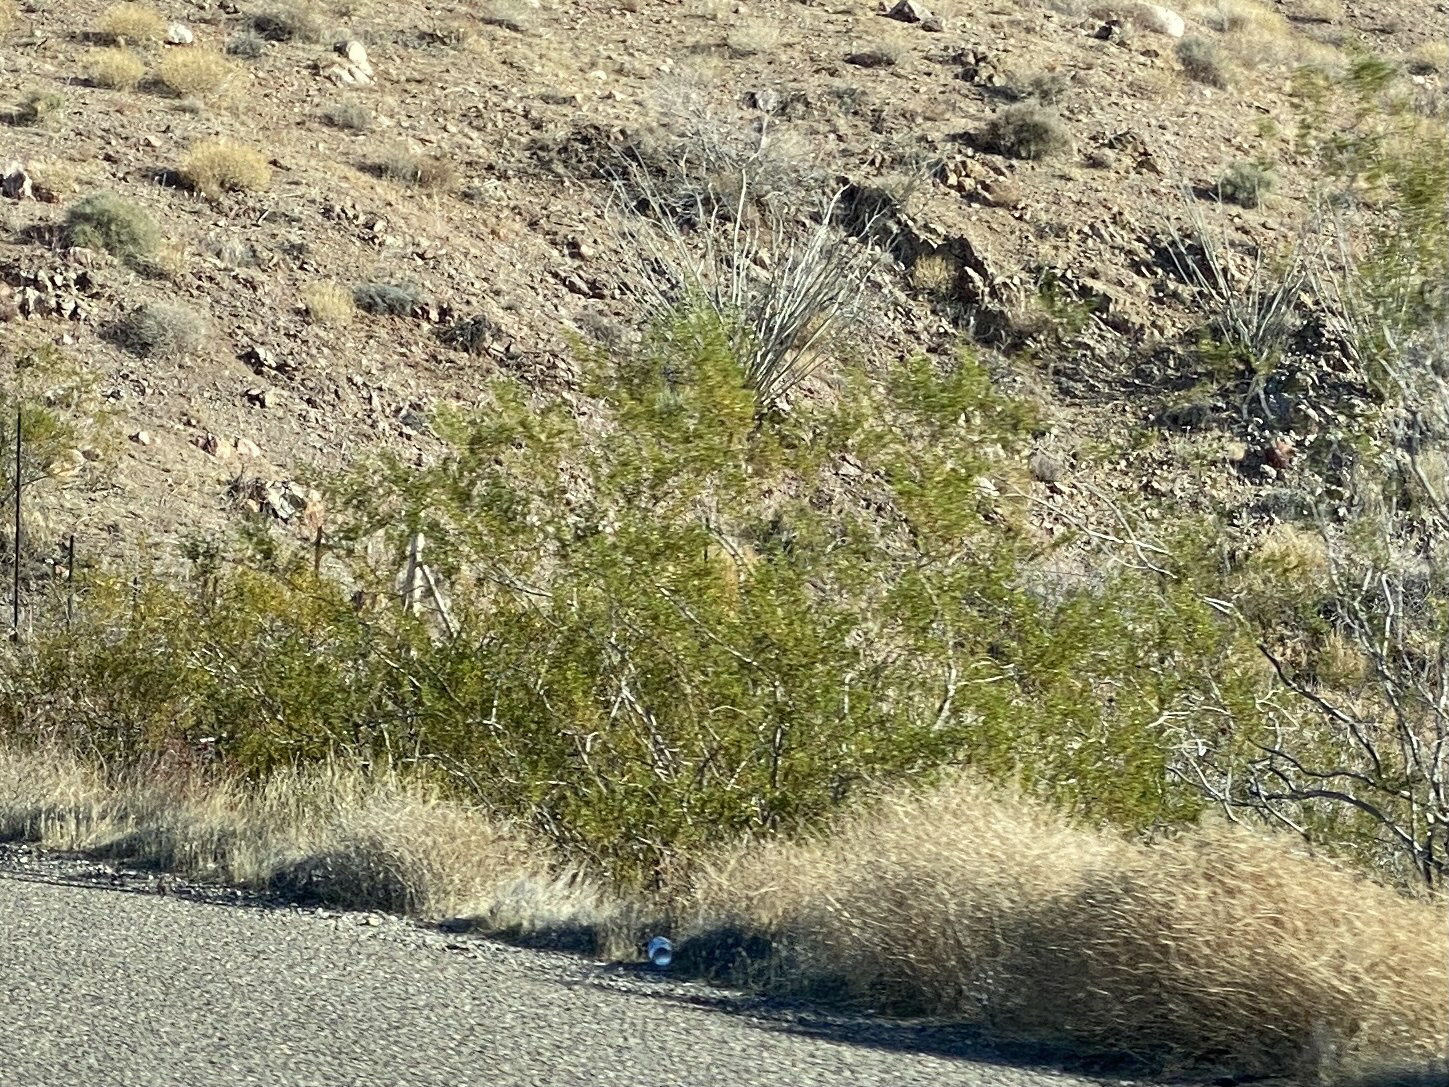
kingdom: Plantae
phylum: Tracheophyta
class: Magnoliopsida
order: Zygophyllales
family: Zygophyllaceae
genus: Larrea
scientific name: Larrea tridentata
